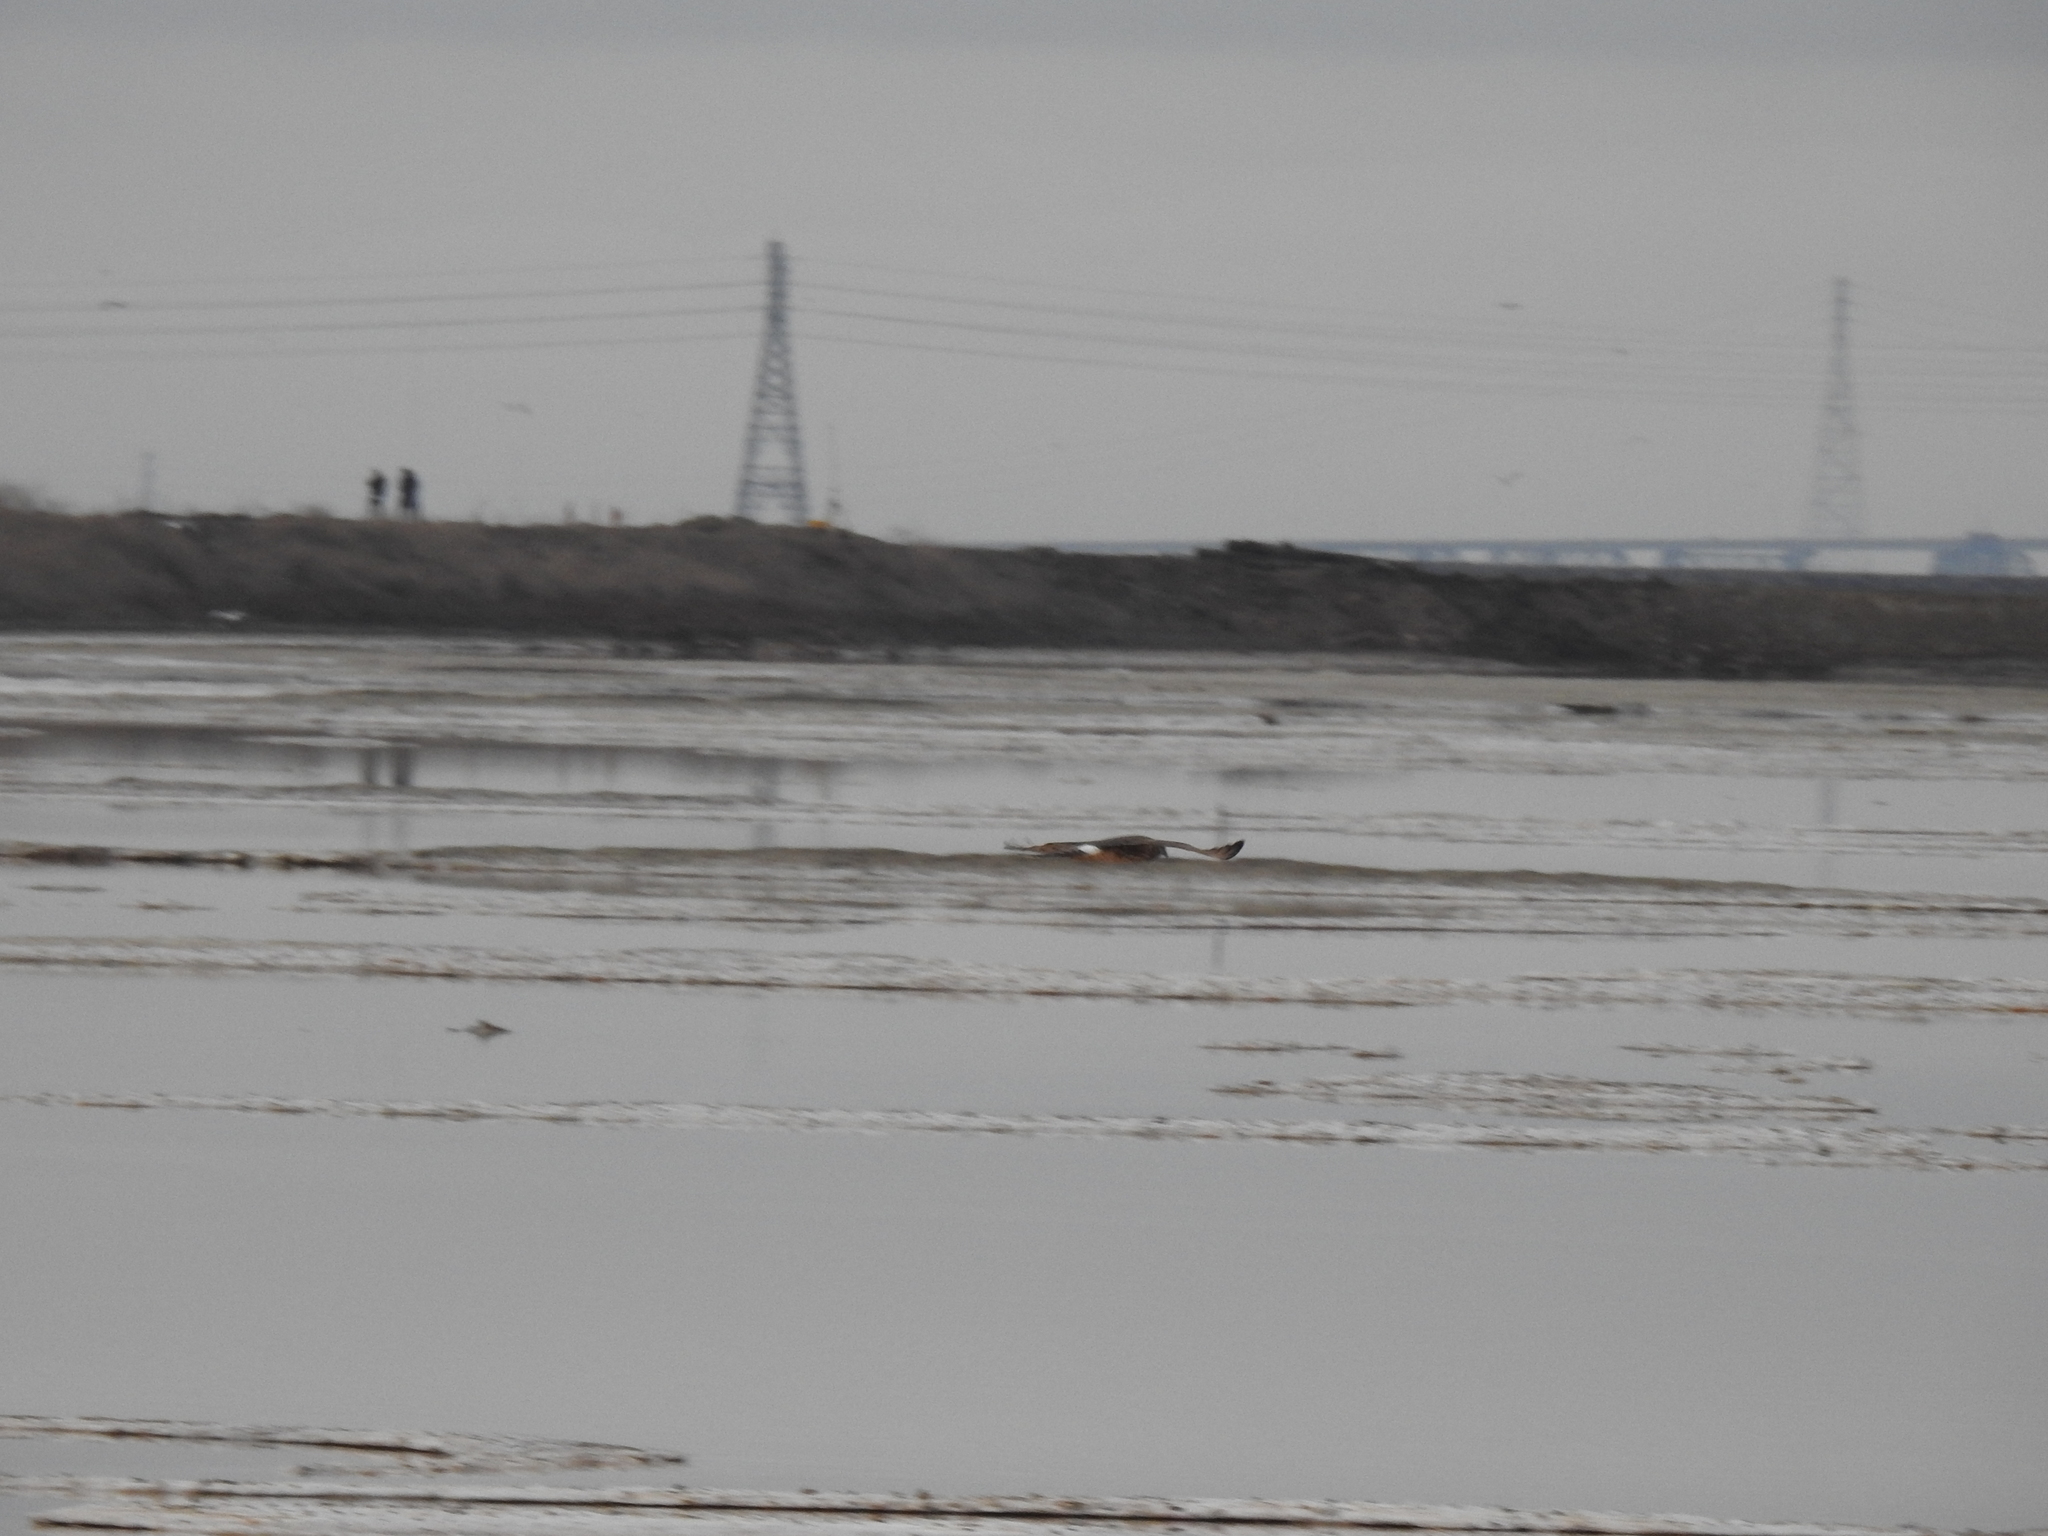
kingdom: Animalia
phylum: Chordata
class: Aves
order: Accipitriformes
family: Accipitridae
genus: Circus
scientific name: Circus cyaneus
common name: Hen harrier
